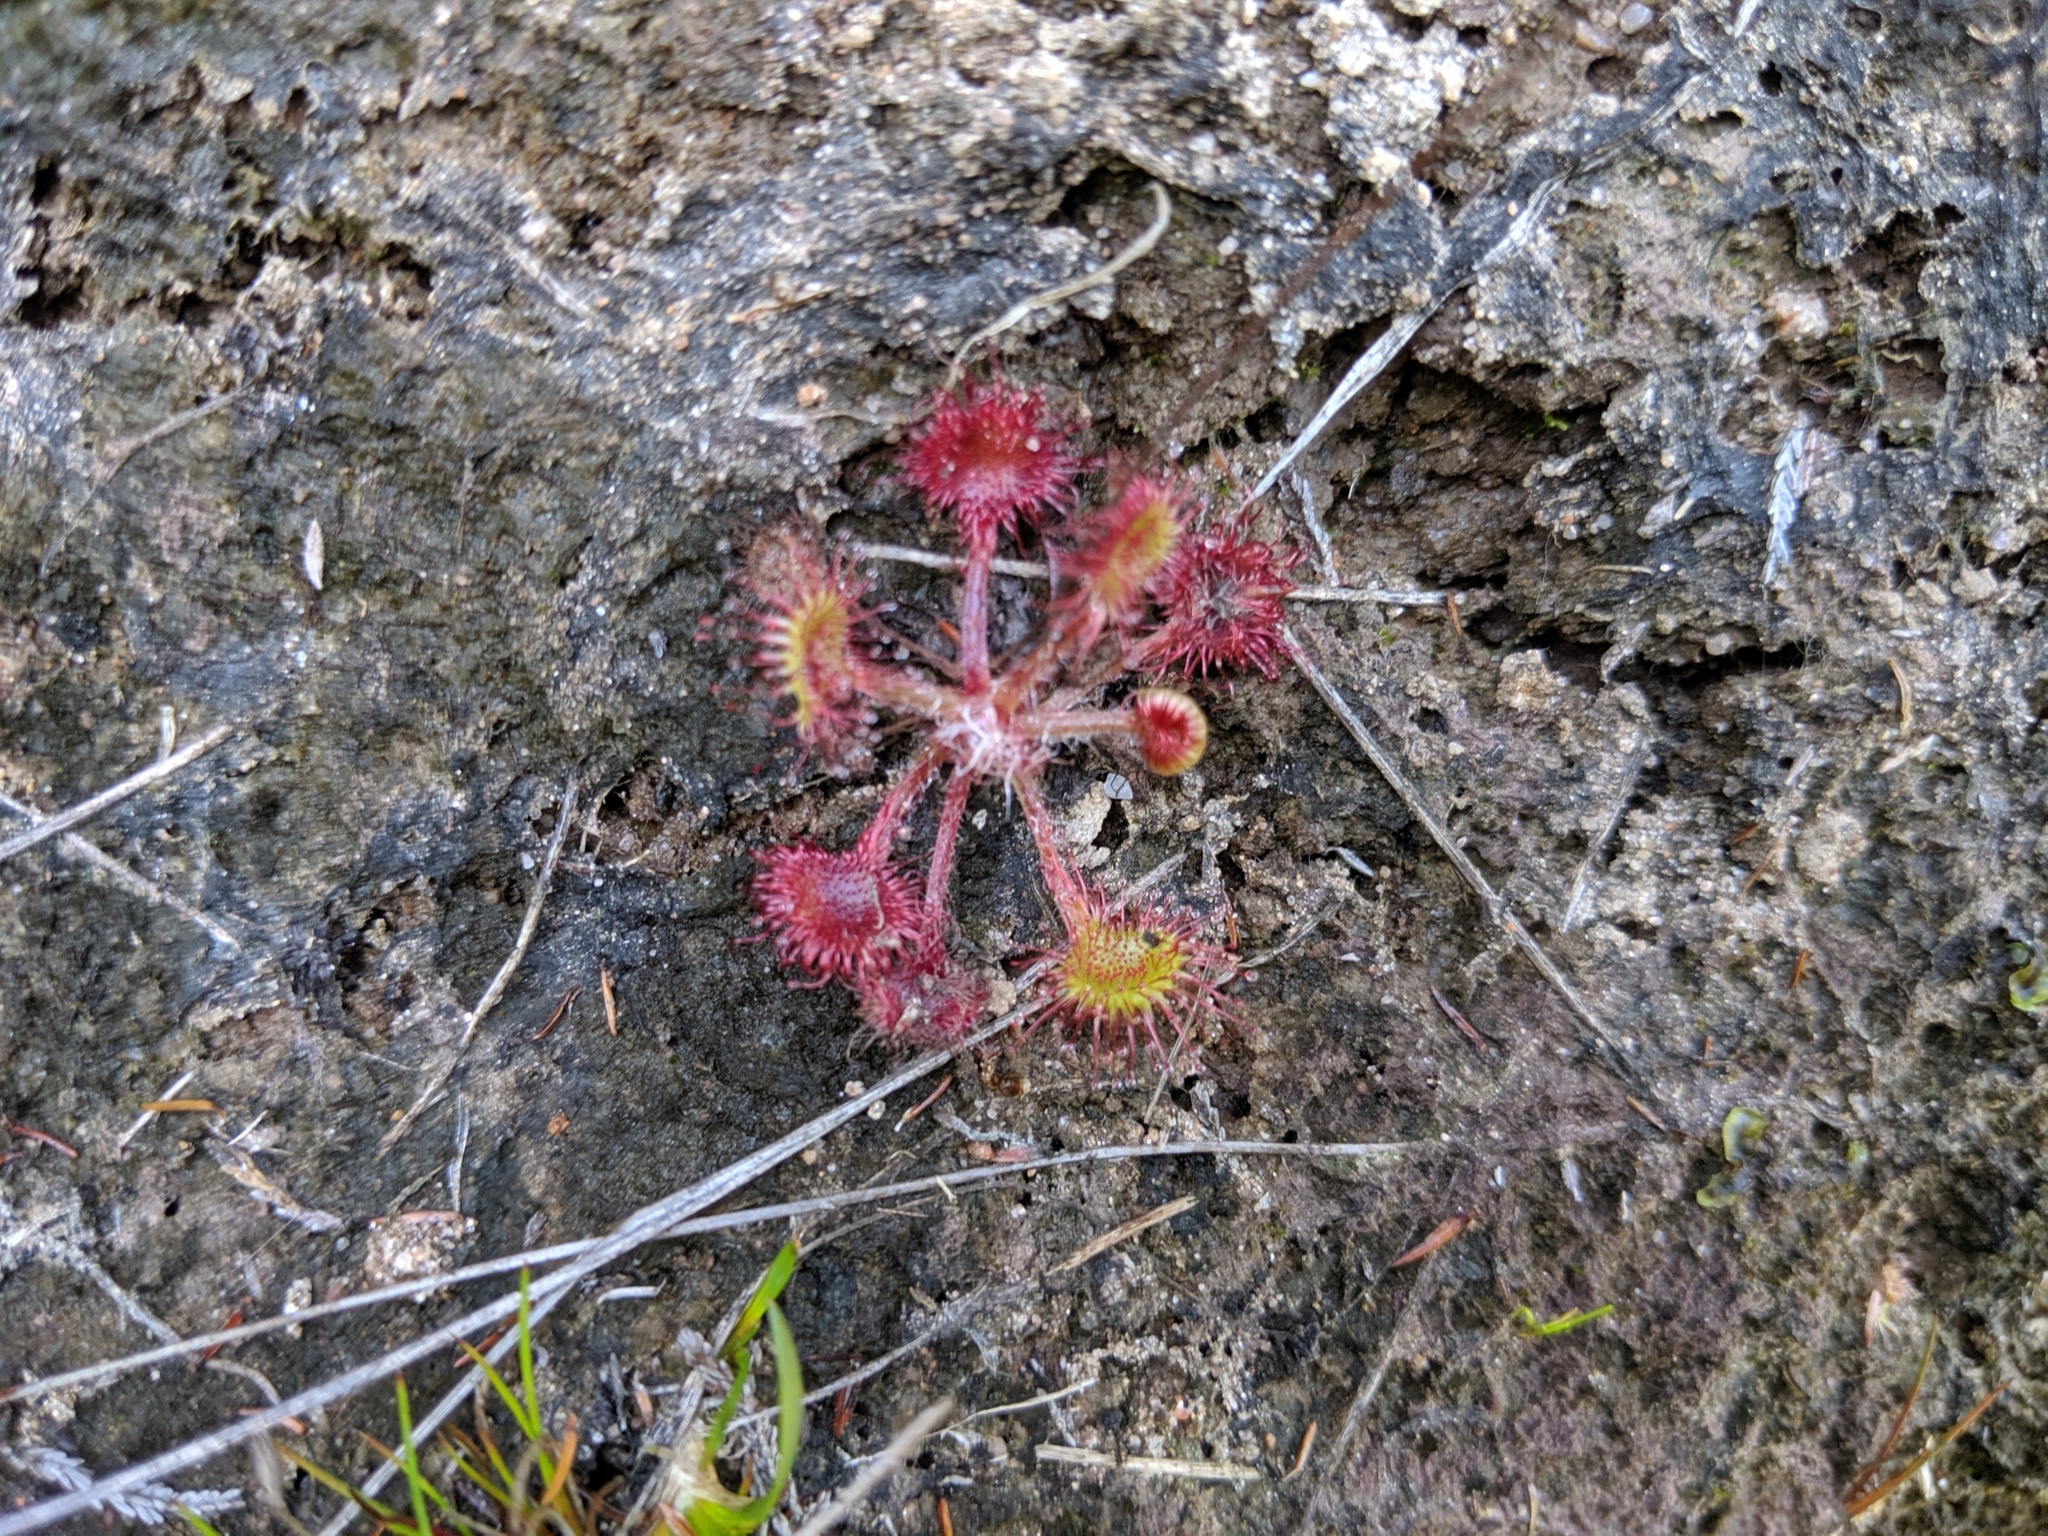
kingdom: Plantae
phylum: Tracheophyta
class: Magnoliopsida
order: Caryophyllales
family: Droseraceae
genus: Drosera
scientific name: Drosera rotundifolia
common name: Round-leaved sundew
